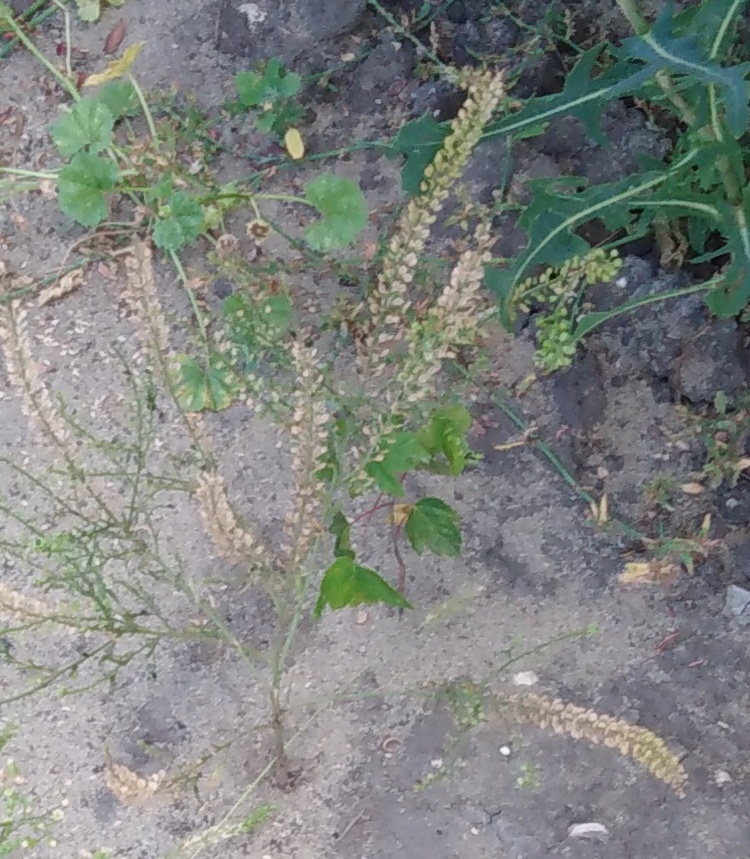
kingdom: Plantae
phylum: Tracheophyta
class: Magnoliopsida
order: Brassicales
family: Brassicaceae
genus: Lepidium
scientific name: Lepidium densiflorum
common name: Miner's pepperwort
